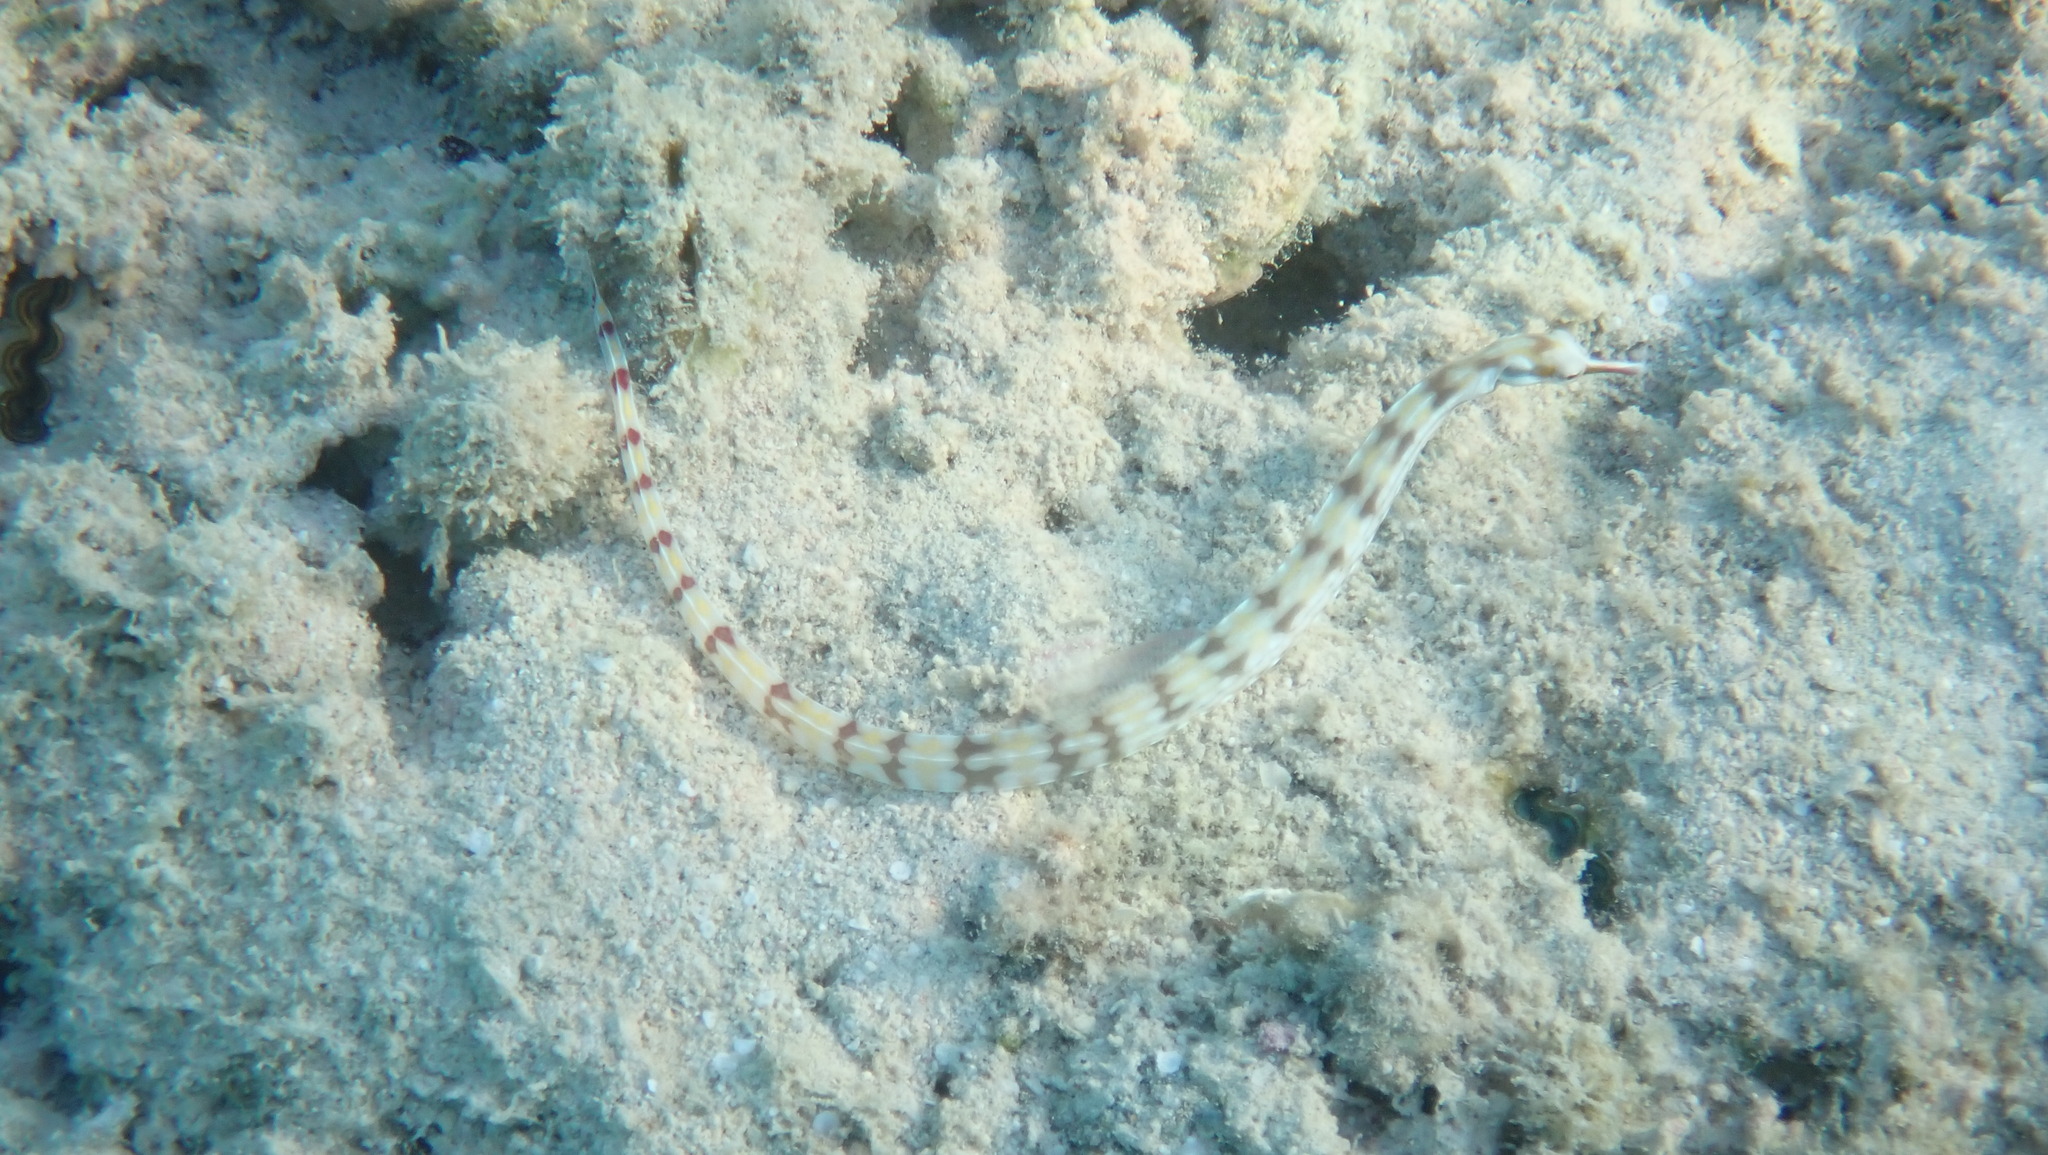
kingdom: Animalia
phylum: Chordata
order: Syngnathiformes
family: Syngnathidae
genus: Corythoichthys
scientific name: Corythoichthys flavofasciatus
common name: Banded pipefish
